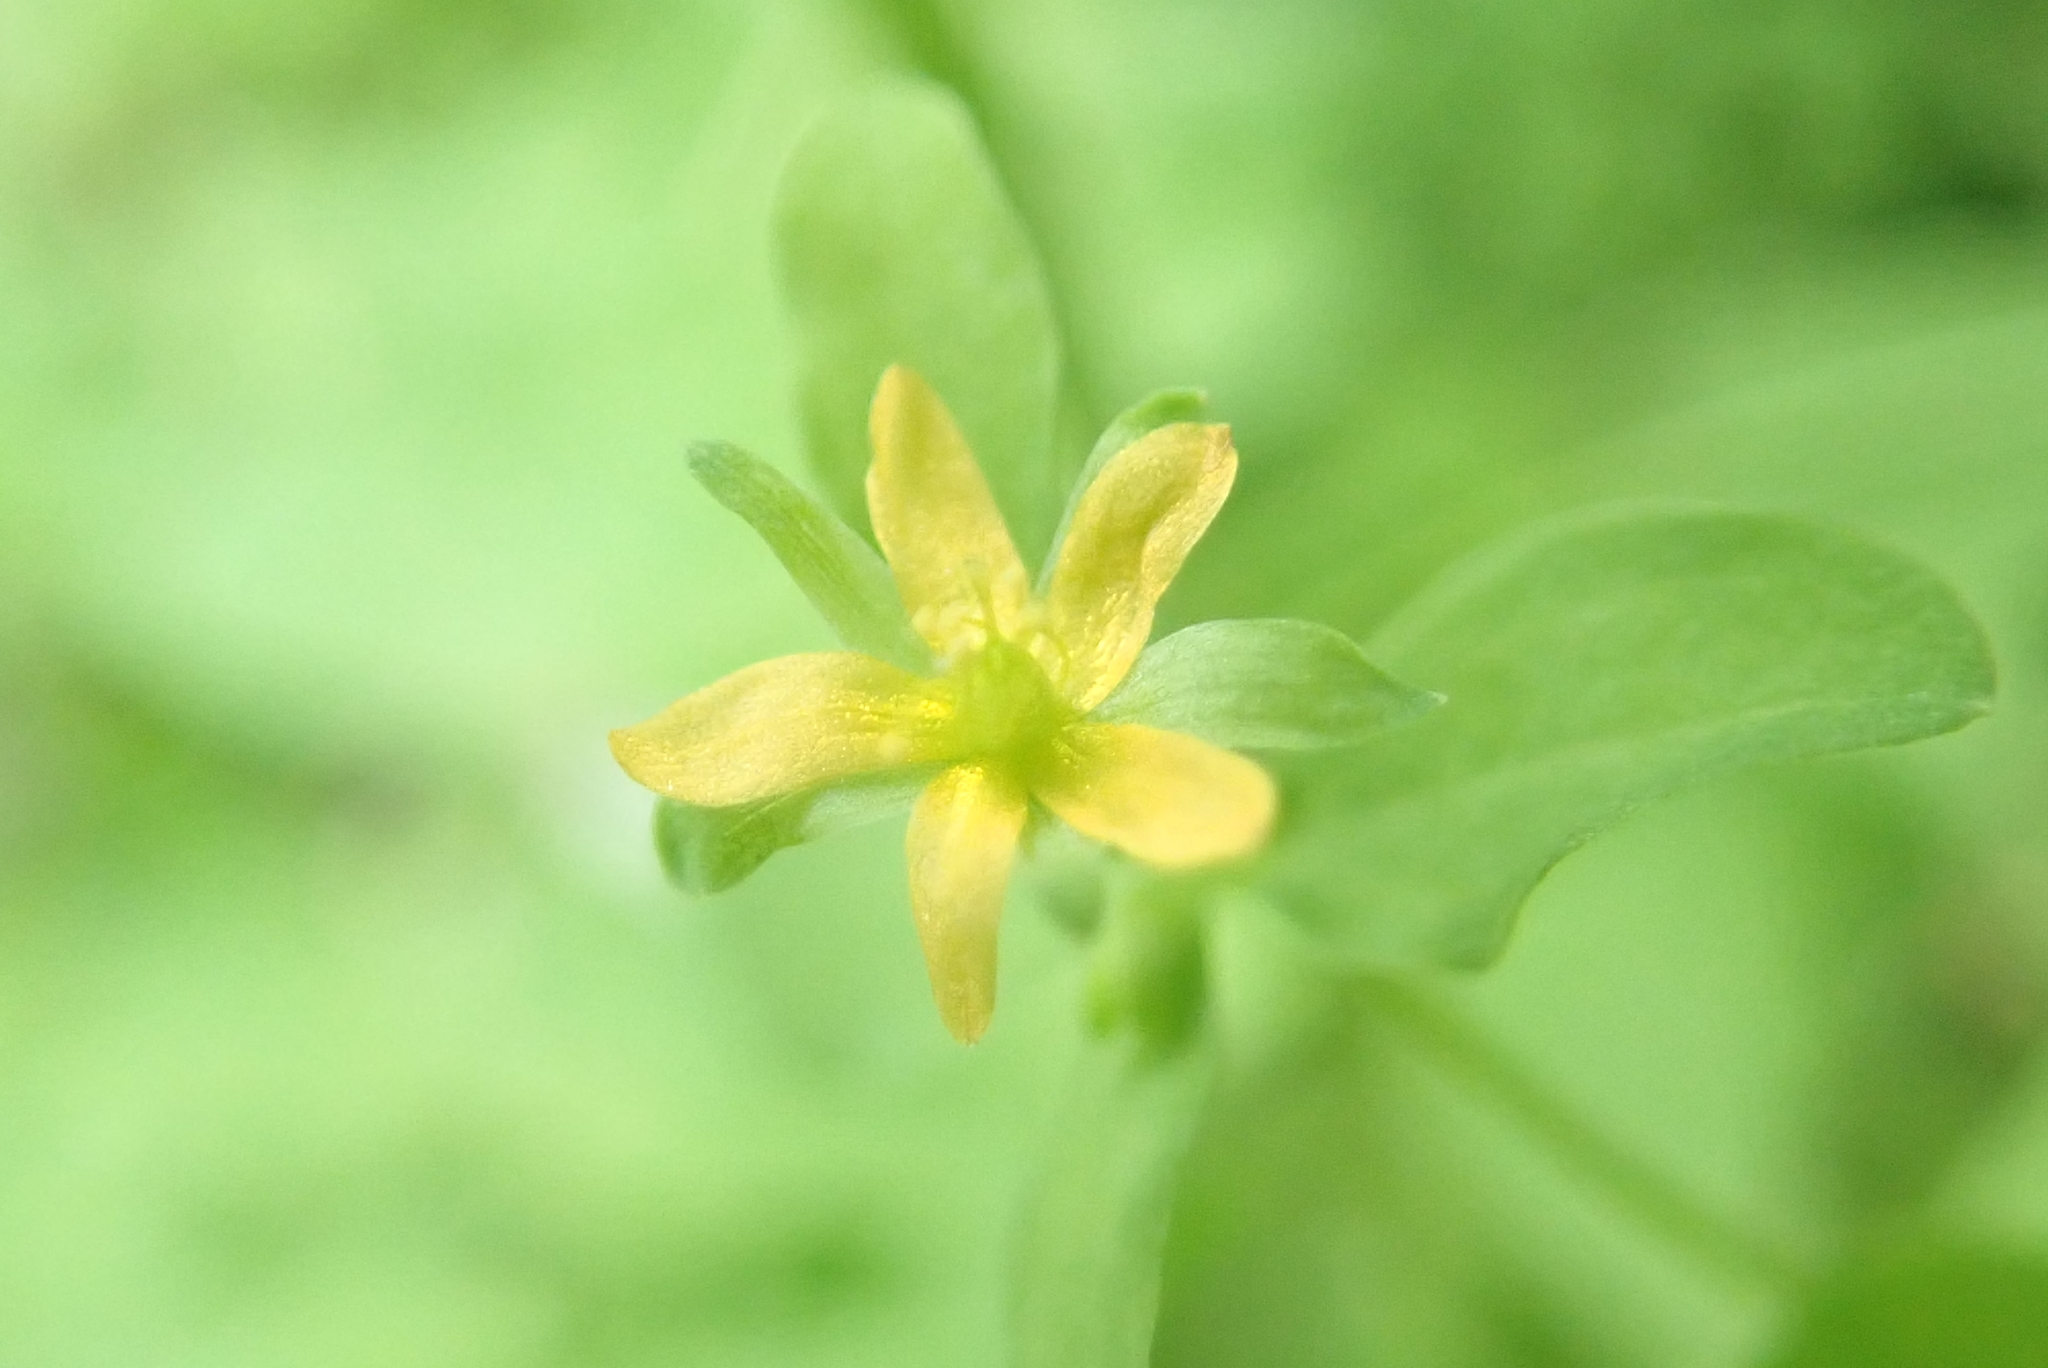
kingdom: Plantae
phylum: Tracheophyta
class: Magnoliopsida
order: Malpighiales
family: Hypericaceae
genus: Hypericum
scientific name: Hypericum mutilum
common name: Dwarf st. john's-wort
